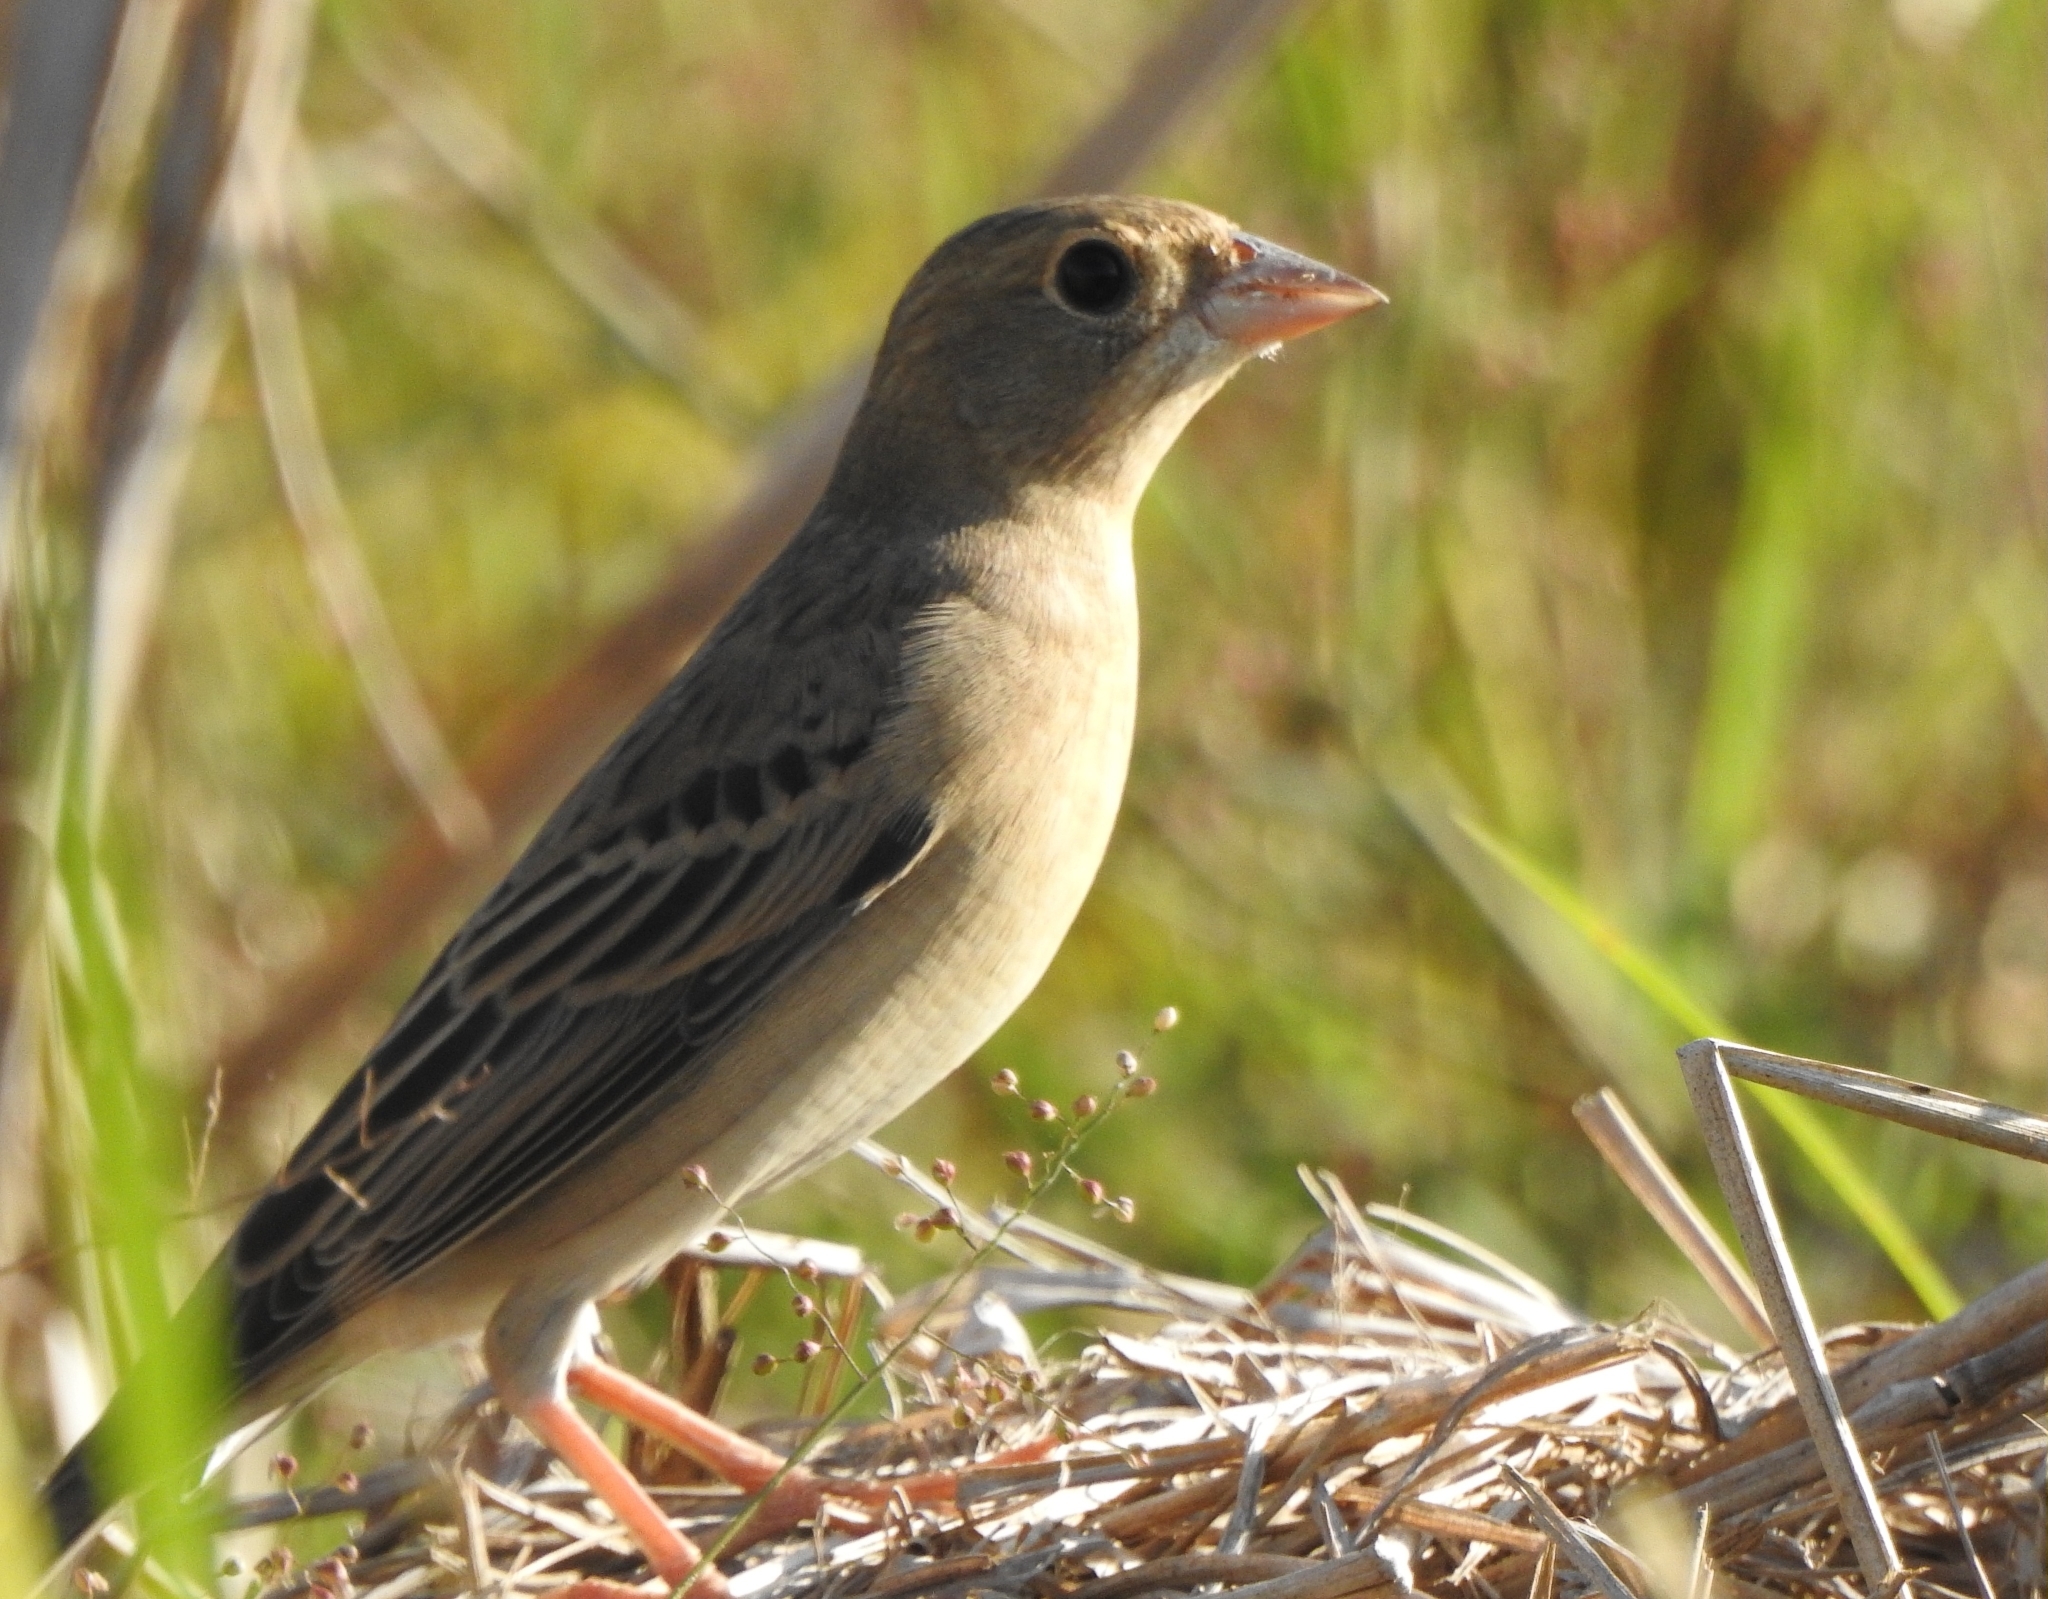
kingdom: Animalia
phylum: Chordata
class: Aves
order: Passeriformes
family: Emberizidae
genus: Emberiza
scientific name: Emberiza bruniceps
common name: Red-headed bunting
